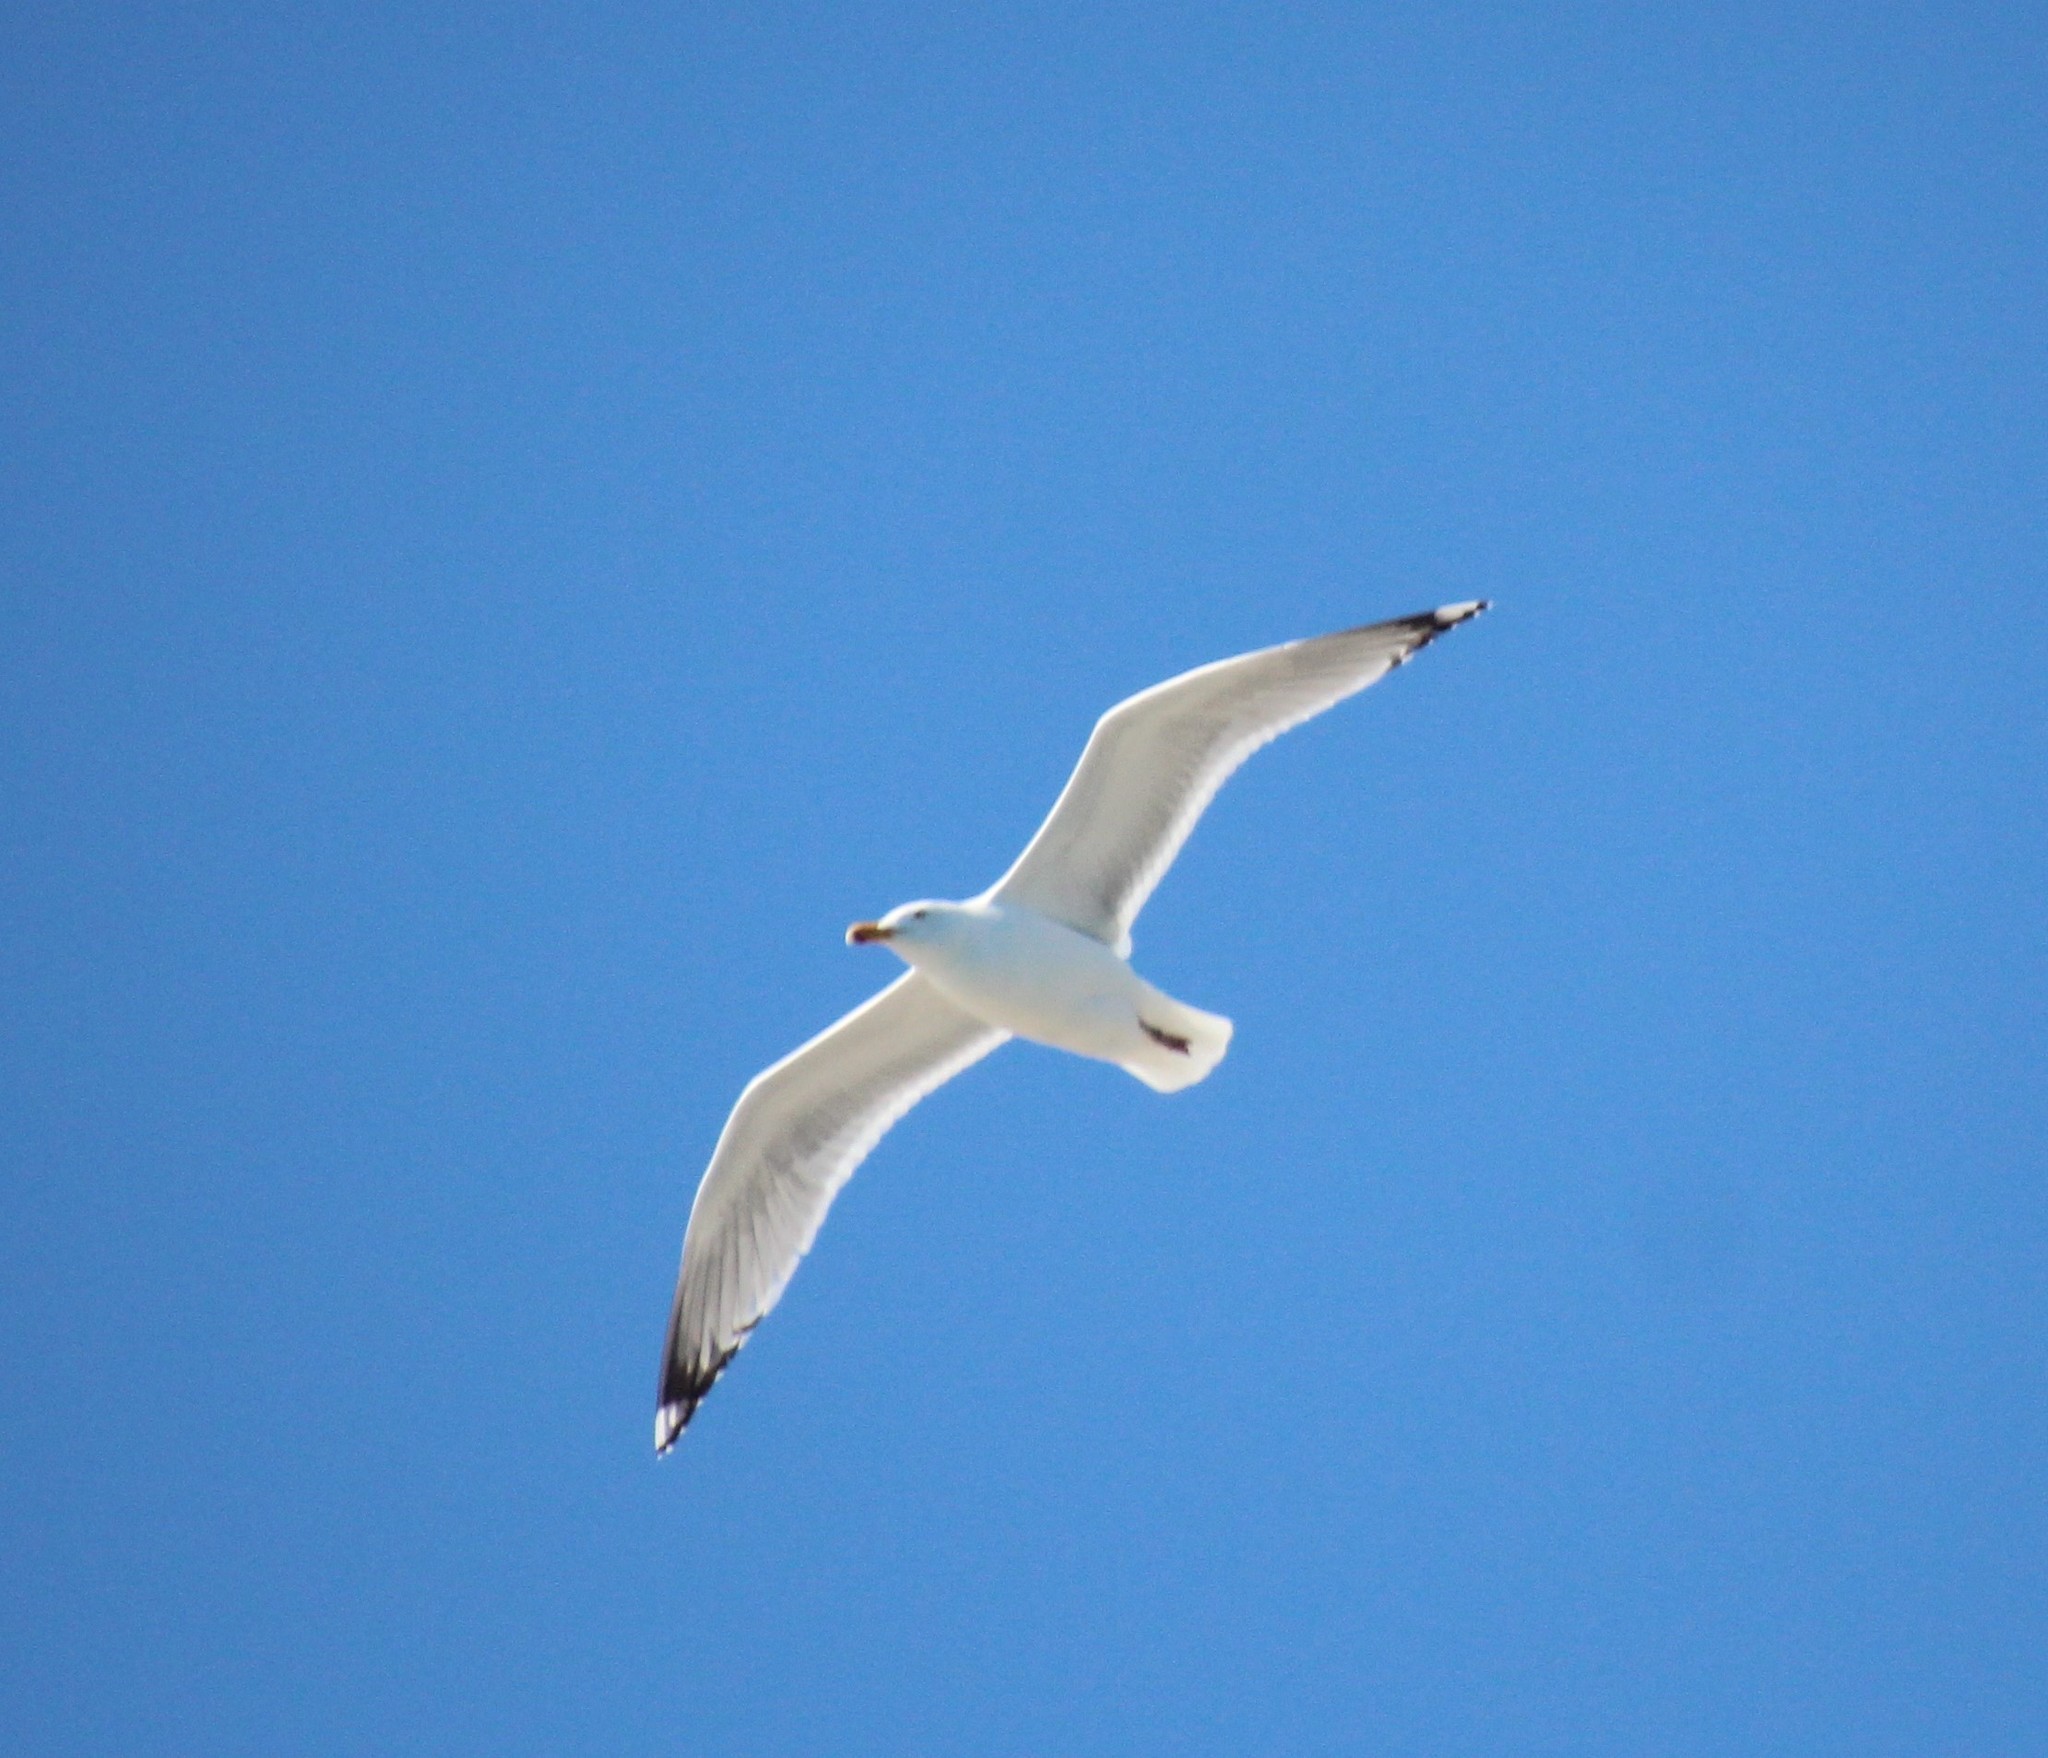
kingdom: Animalia
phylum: Chordata
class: Aves
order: Charadriiformes
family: Laridae
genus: Larus
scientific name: Larus argentatus
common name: Herring gull
